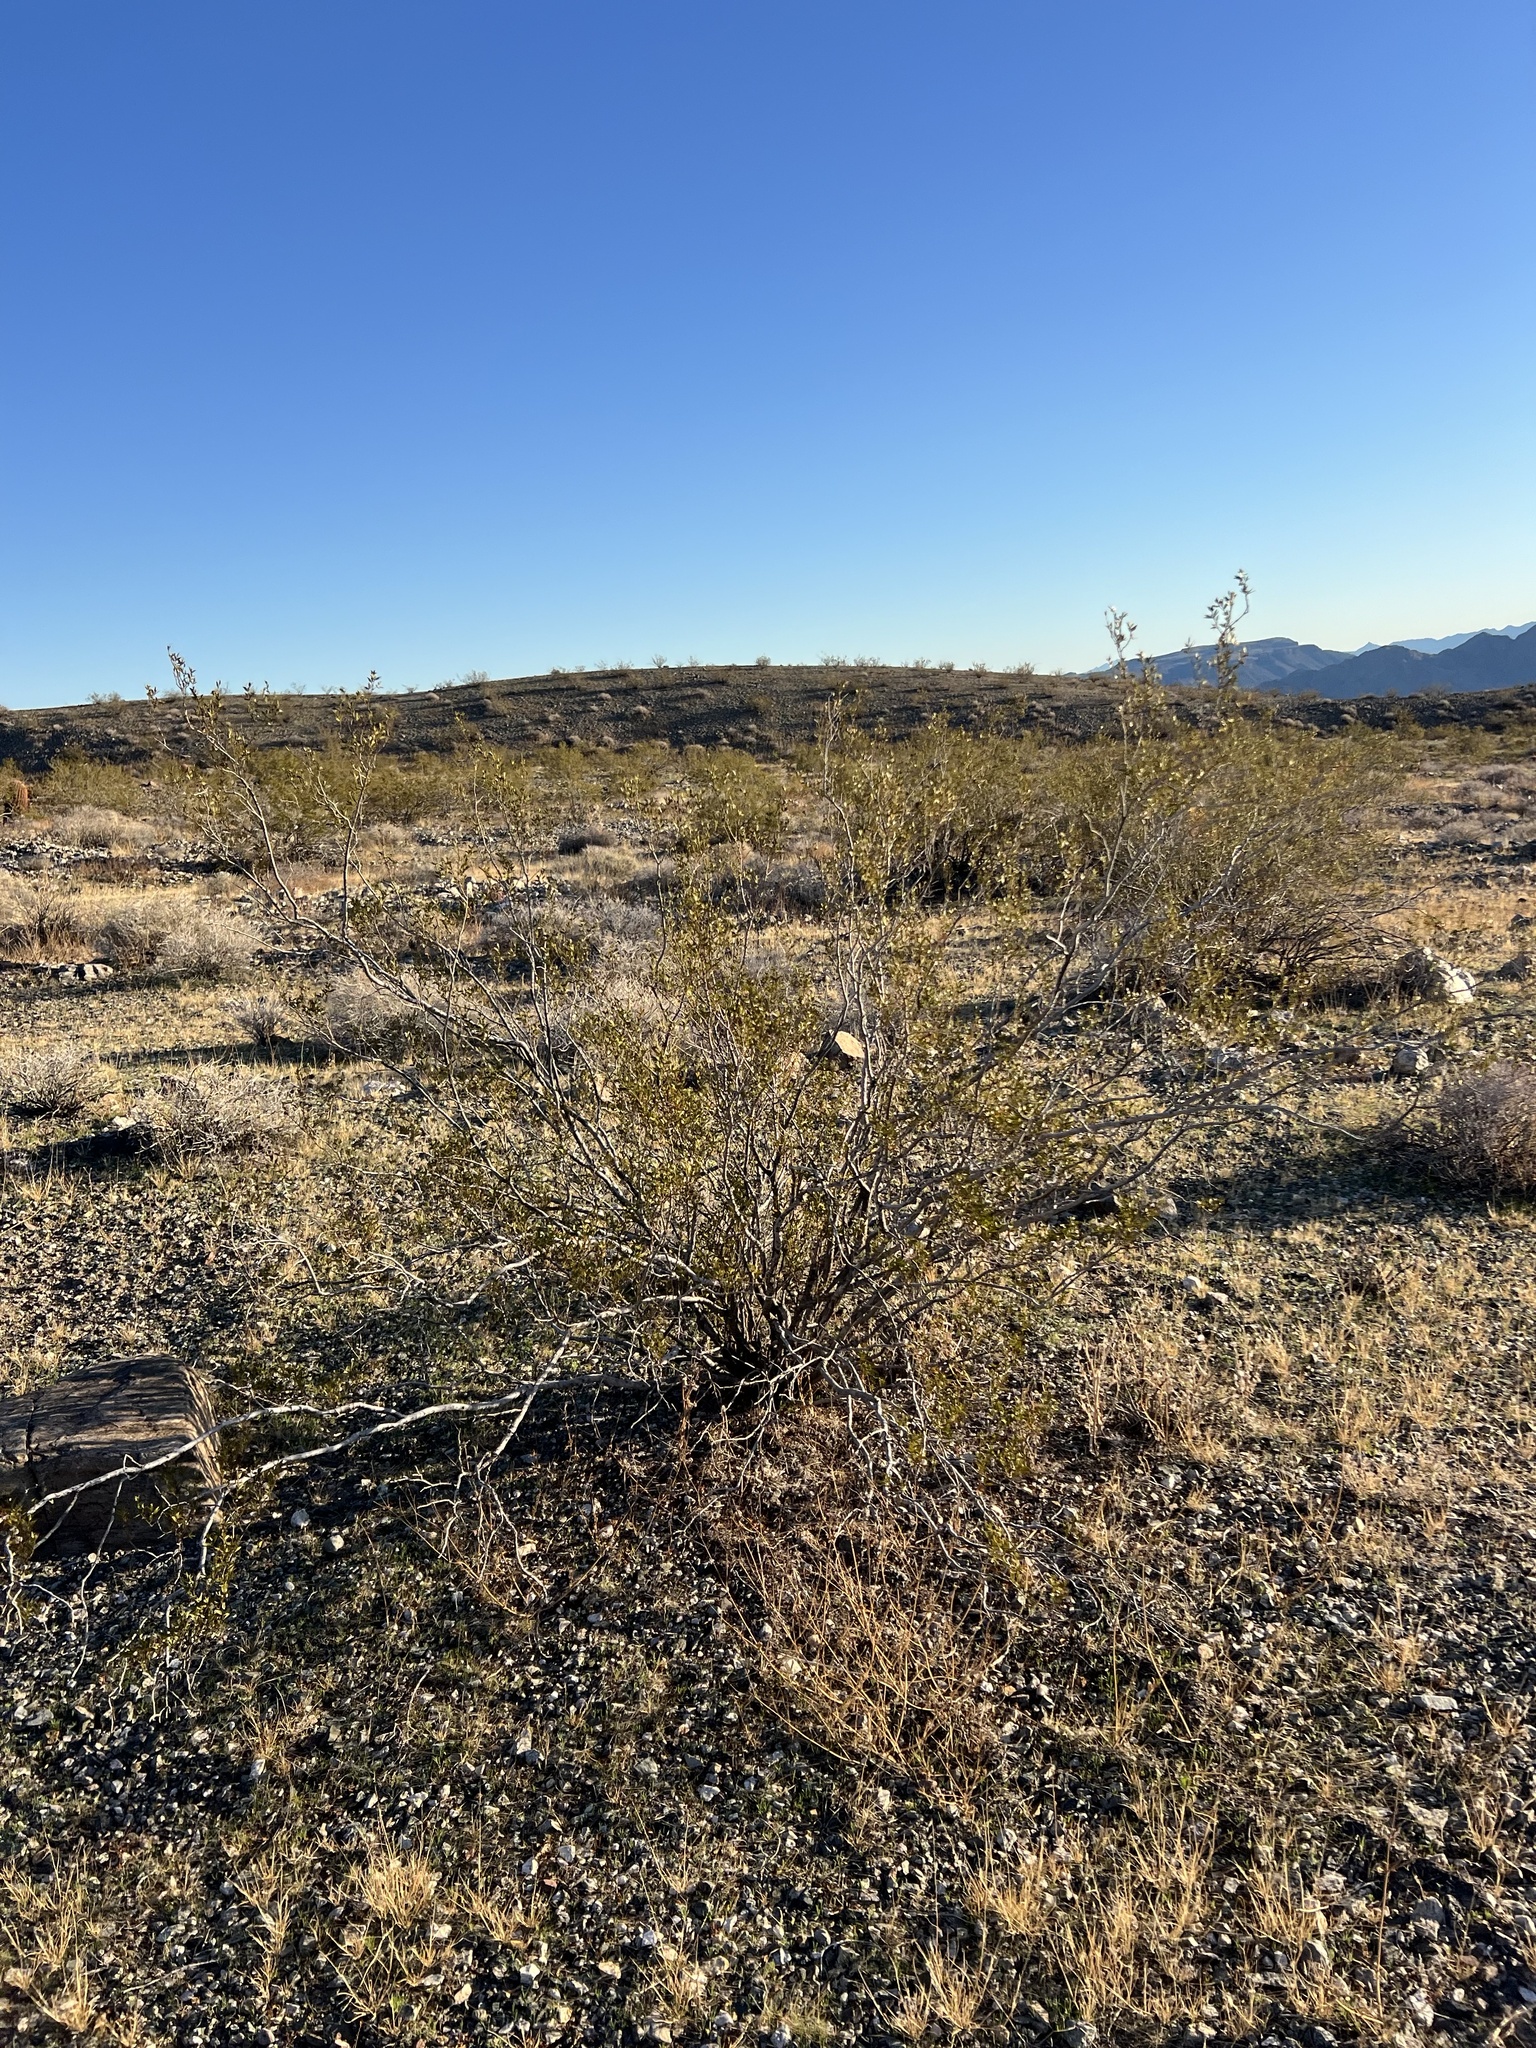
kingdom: Plantae
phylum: Tracheophyta
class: Magnoliopsida
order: Zygophyllales
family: Zygophyllaceae
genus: Larrea
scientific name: Larrea tridentata
